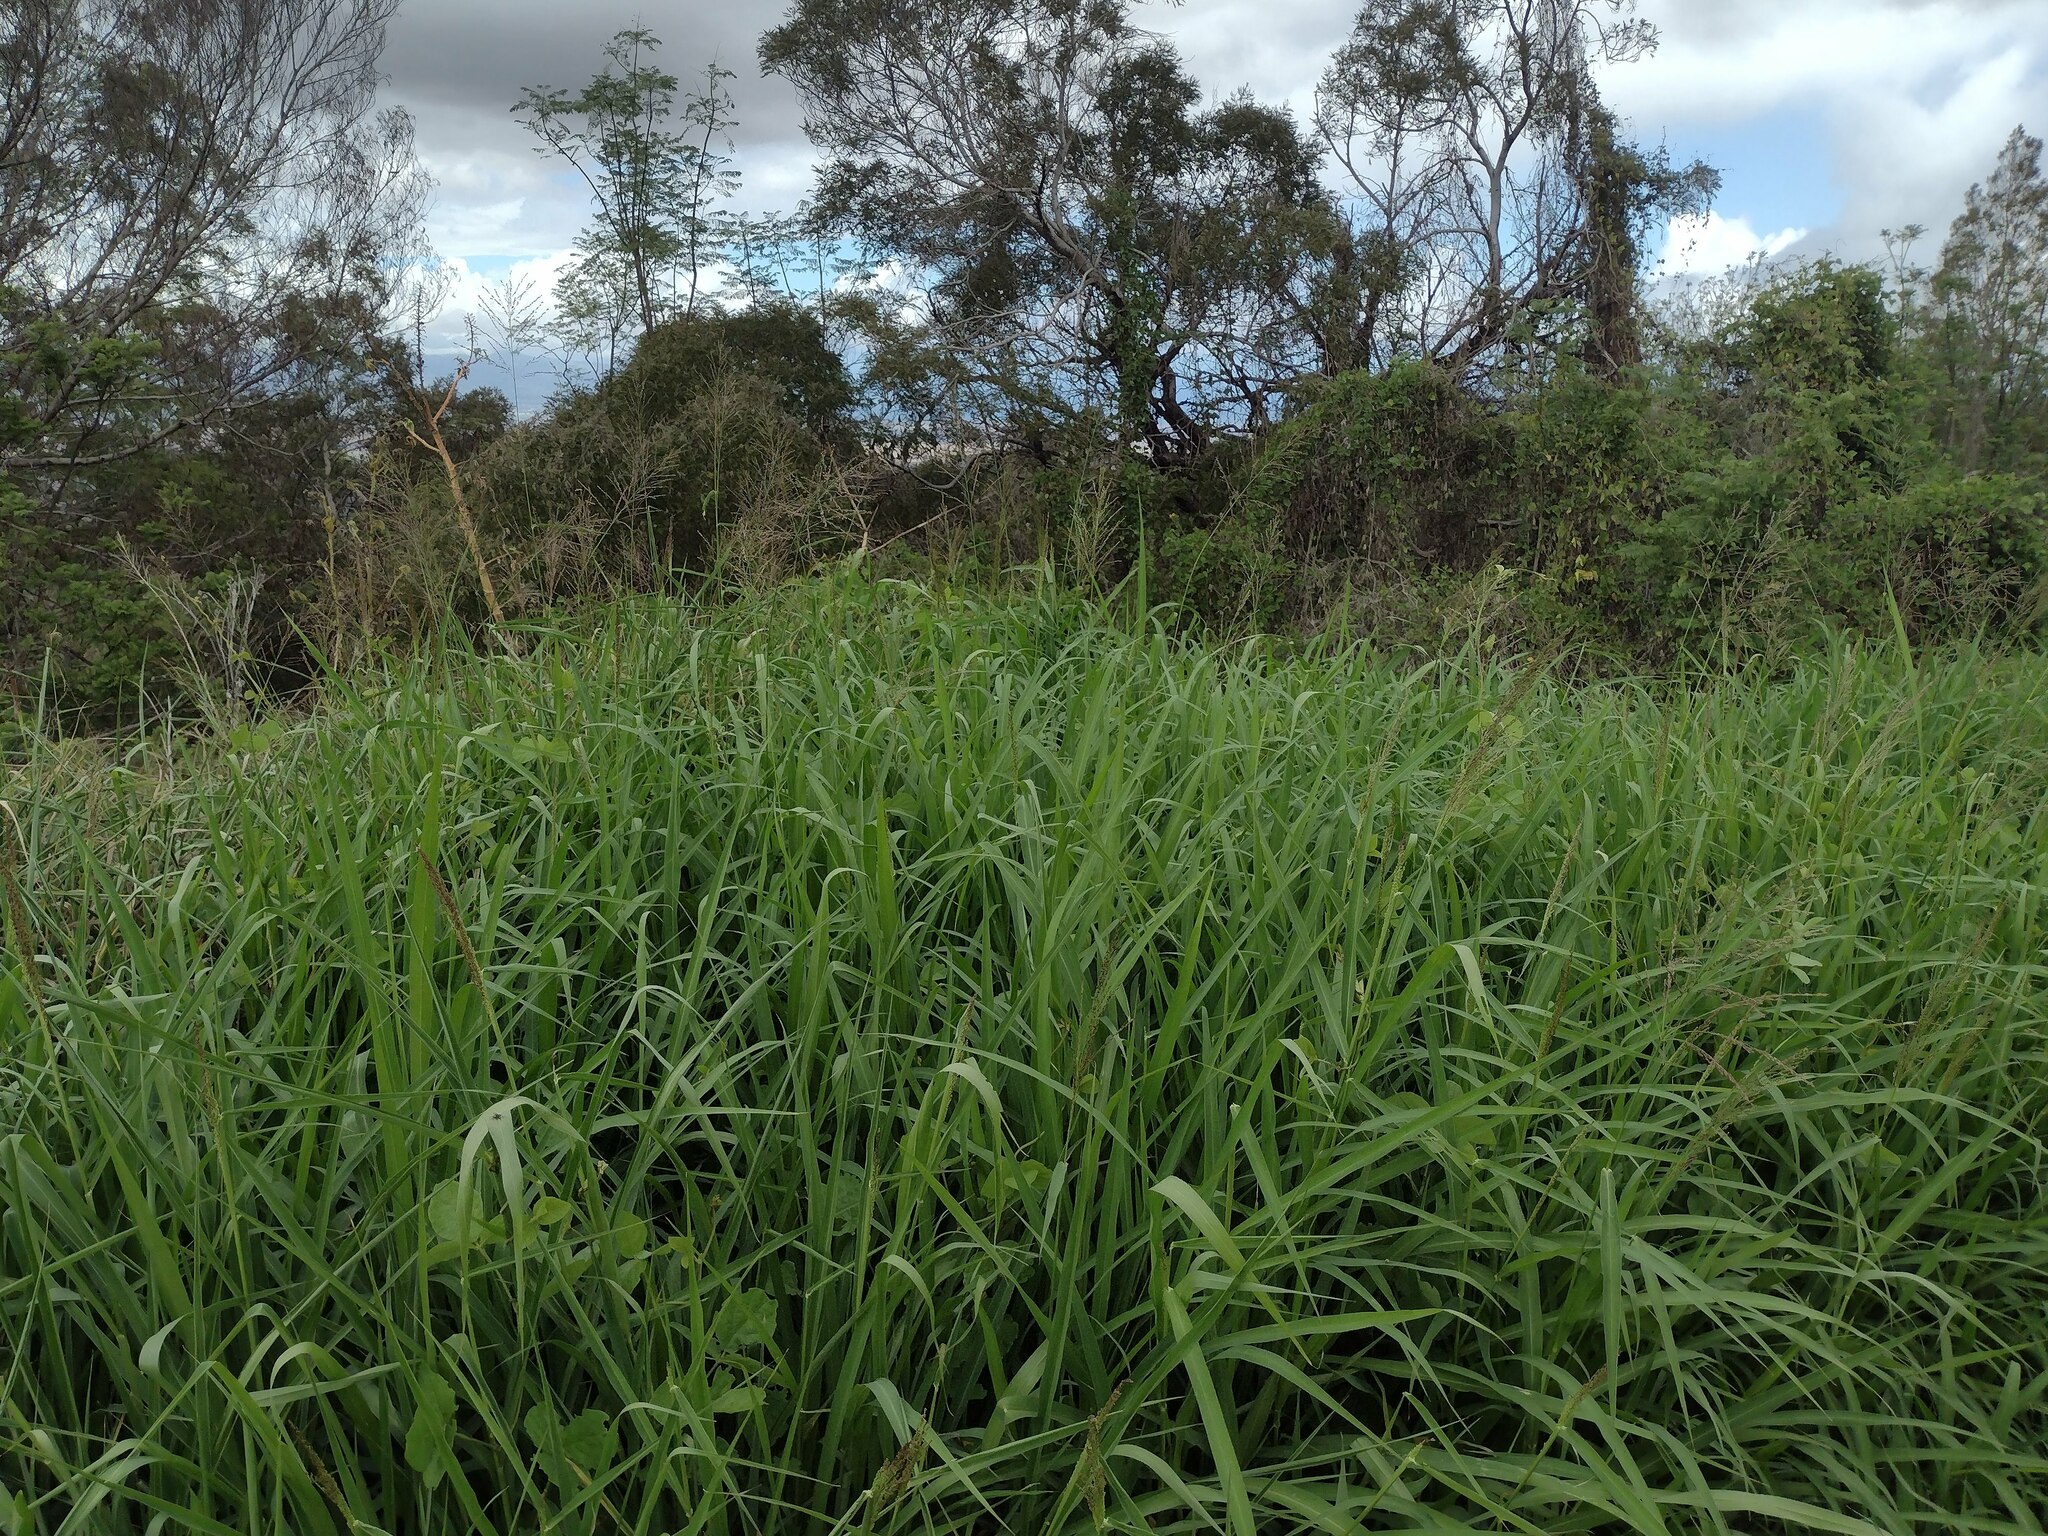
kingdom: Plantae
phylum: Tracheophyta
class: Liliopsida
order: Poales
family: Poaceae
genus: Megathyrsus
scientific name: Megathyrsus maximus
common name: Guineagrass
